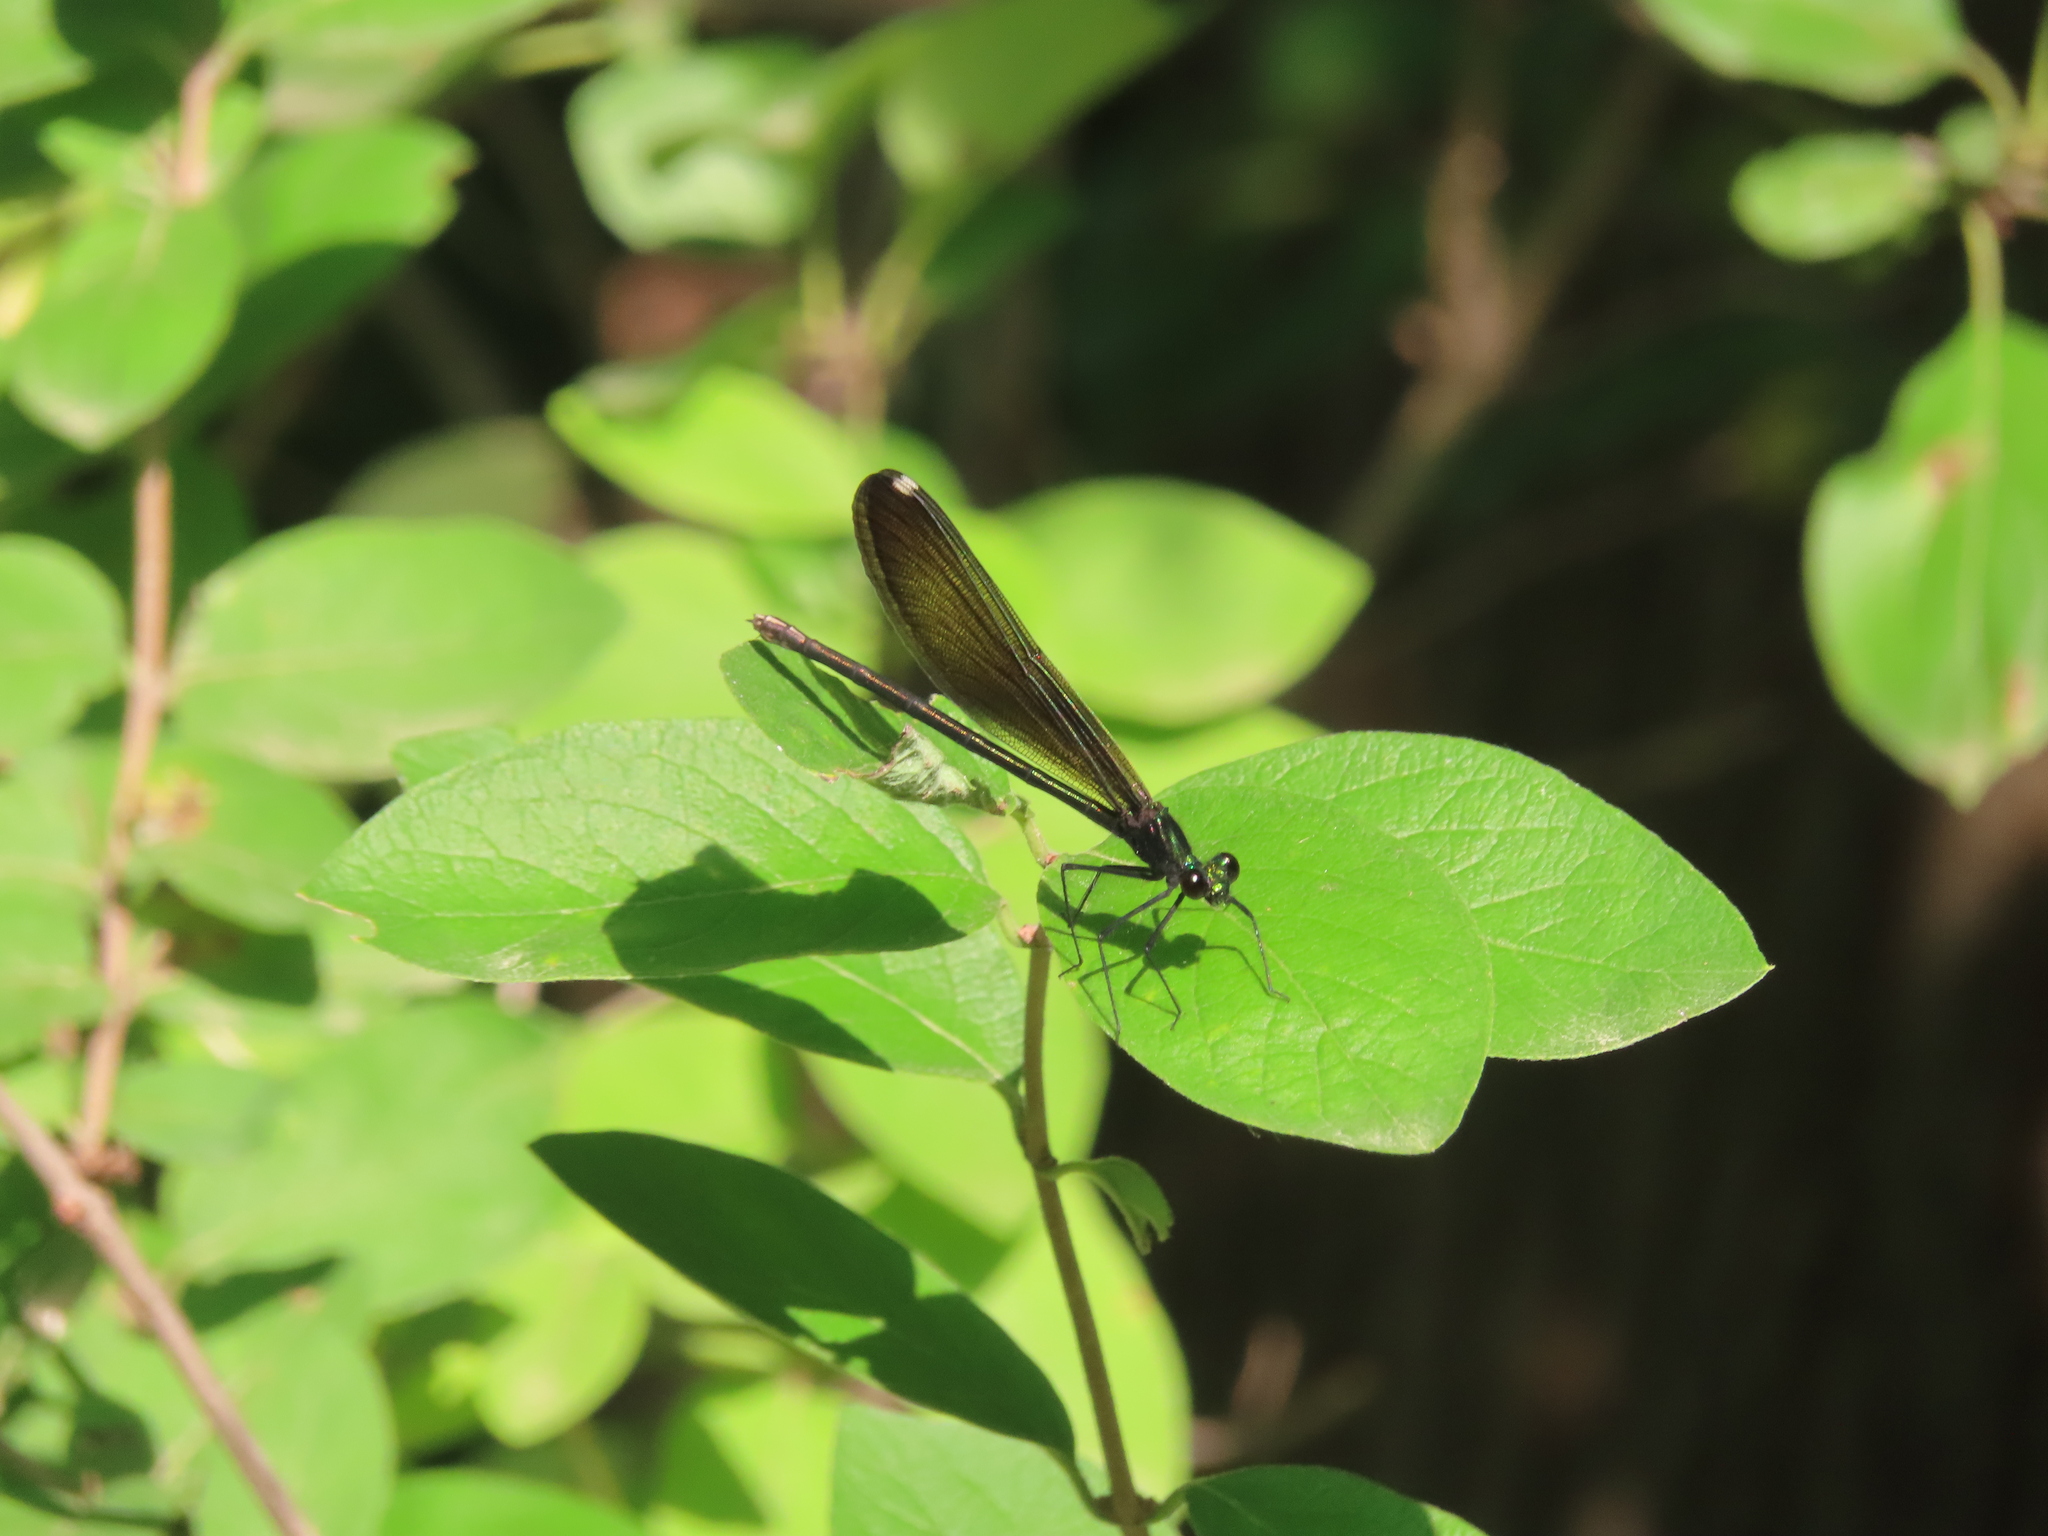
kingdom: Animalia
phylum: Arthropoda
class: Insecta
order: Odonata
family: Calopterygidae
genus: Calopteryx
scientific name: Calopteryx maculata
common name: Ebony jewelwing
